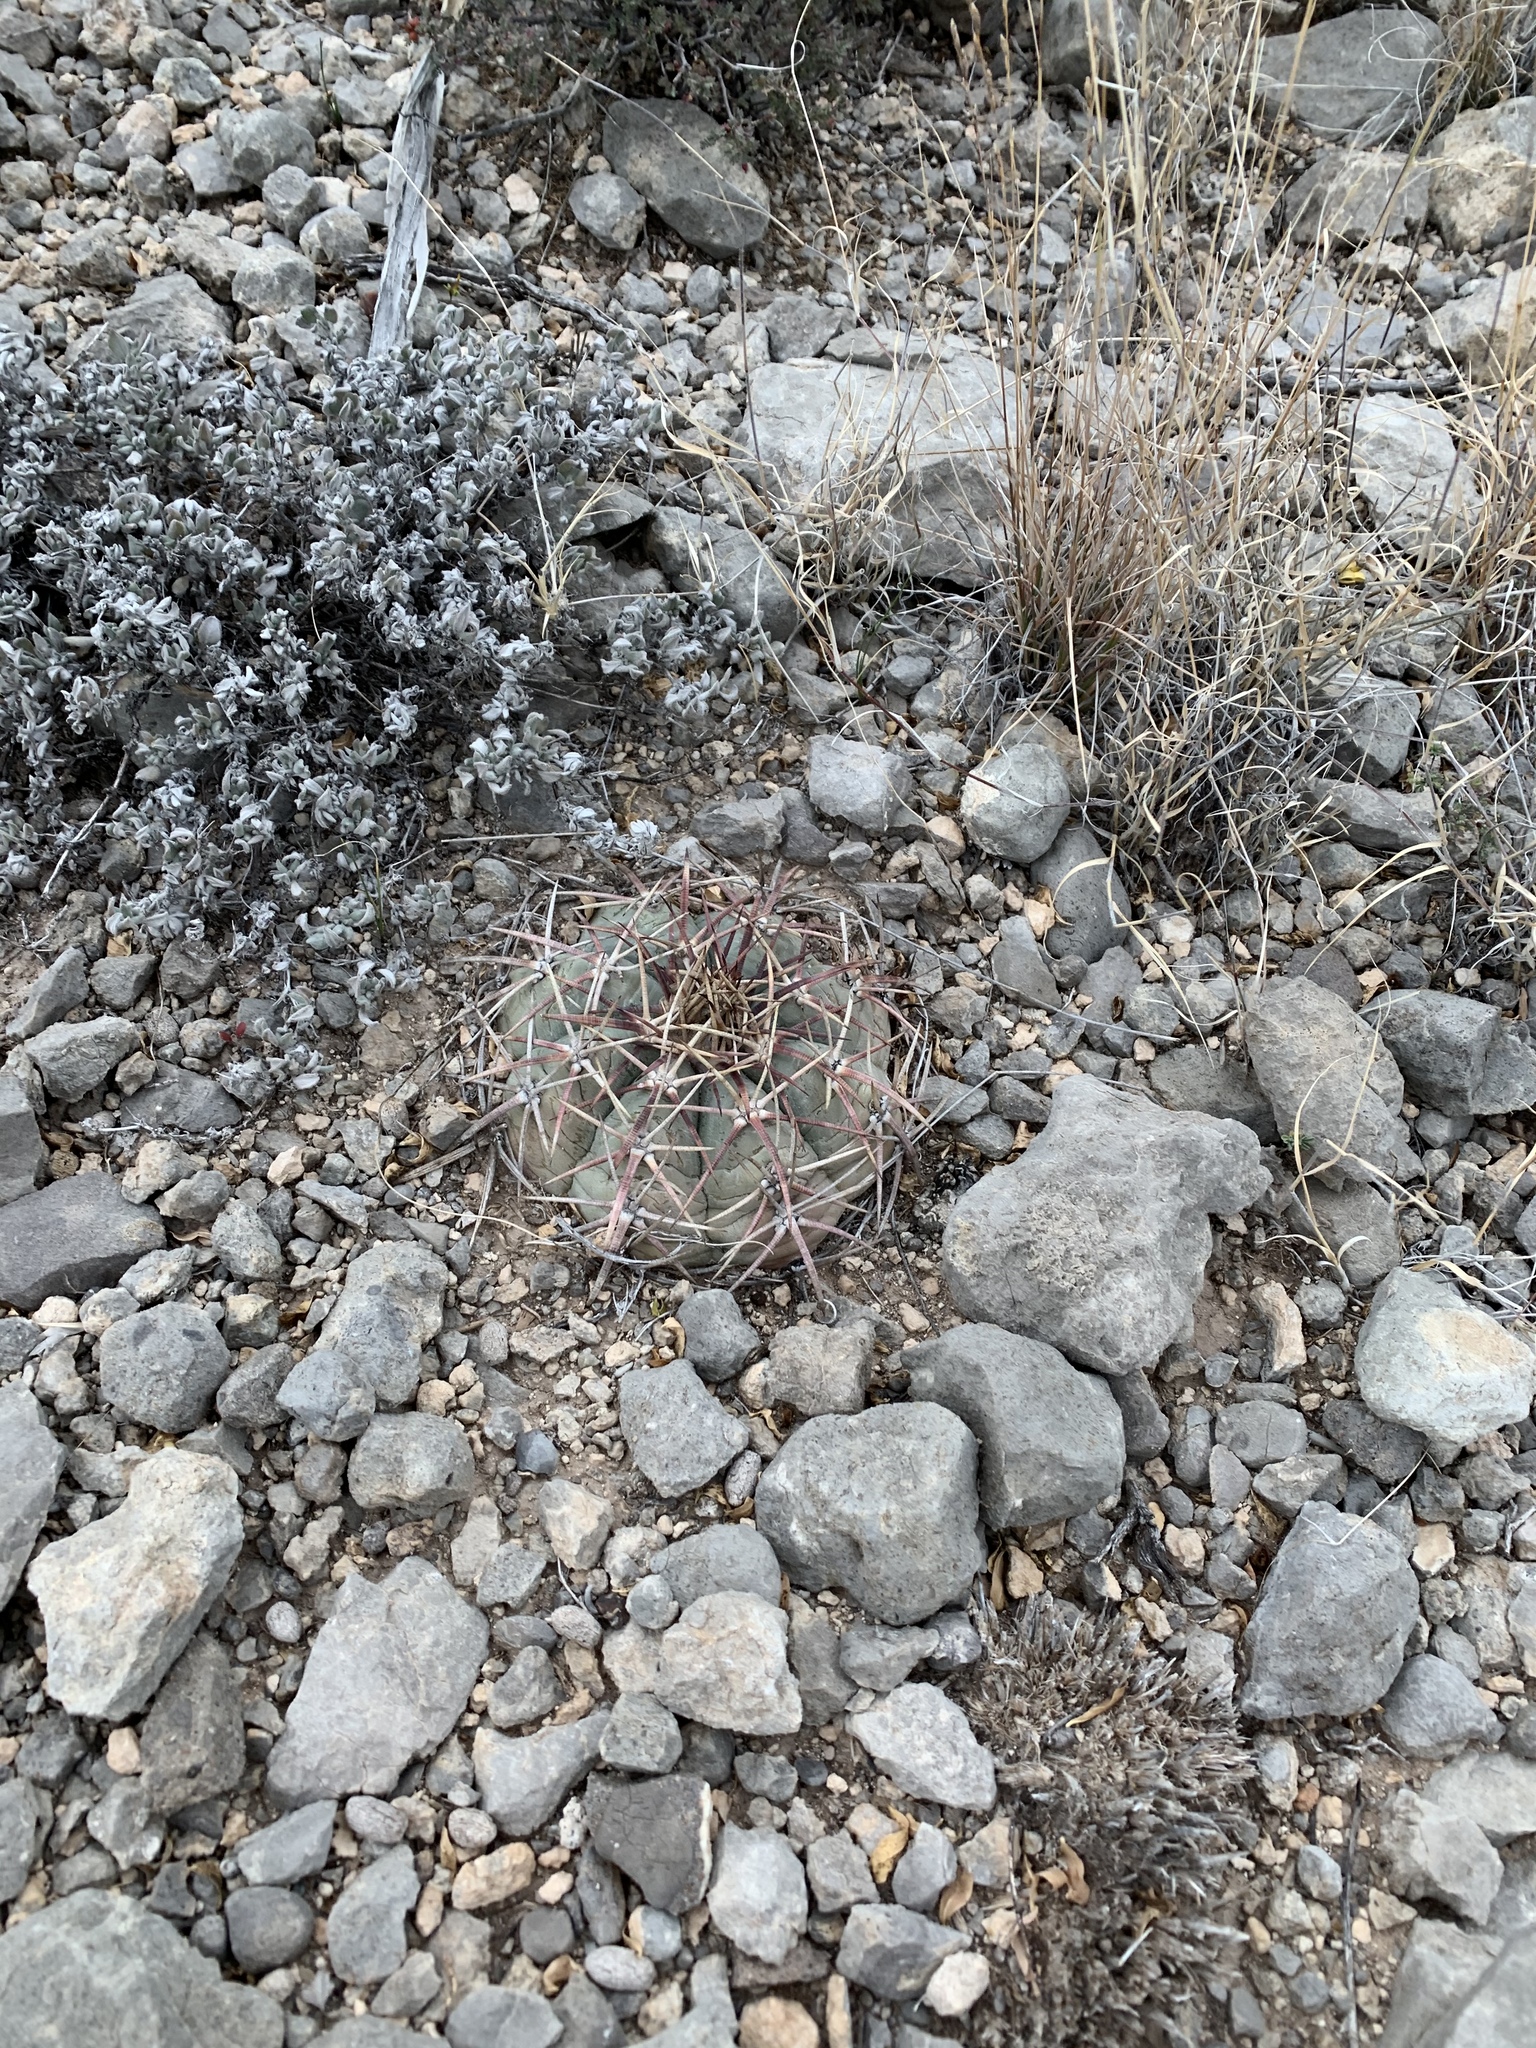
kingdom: Plantae
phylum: Tracheophyta
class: Magnoliopsida
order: Caryophyllales
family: Cactaceae
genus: Echinocactus
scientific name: Echinocactus horizonthalonius
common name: Devilshead
